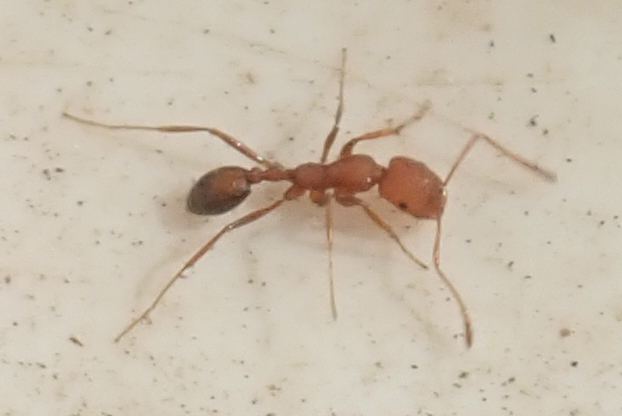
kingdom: Animalia
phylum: Arthropoda
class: Insecta
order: Hymenoptera
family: Formicidae
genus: Monomorium
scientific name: Monomorium rufulum
